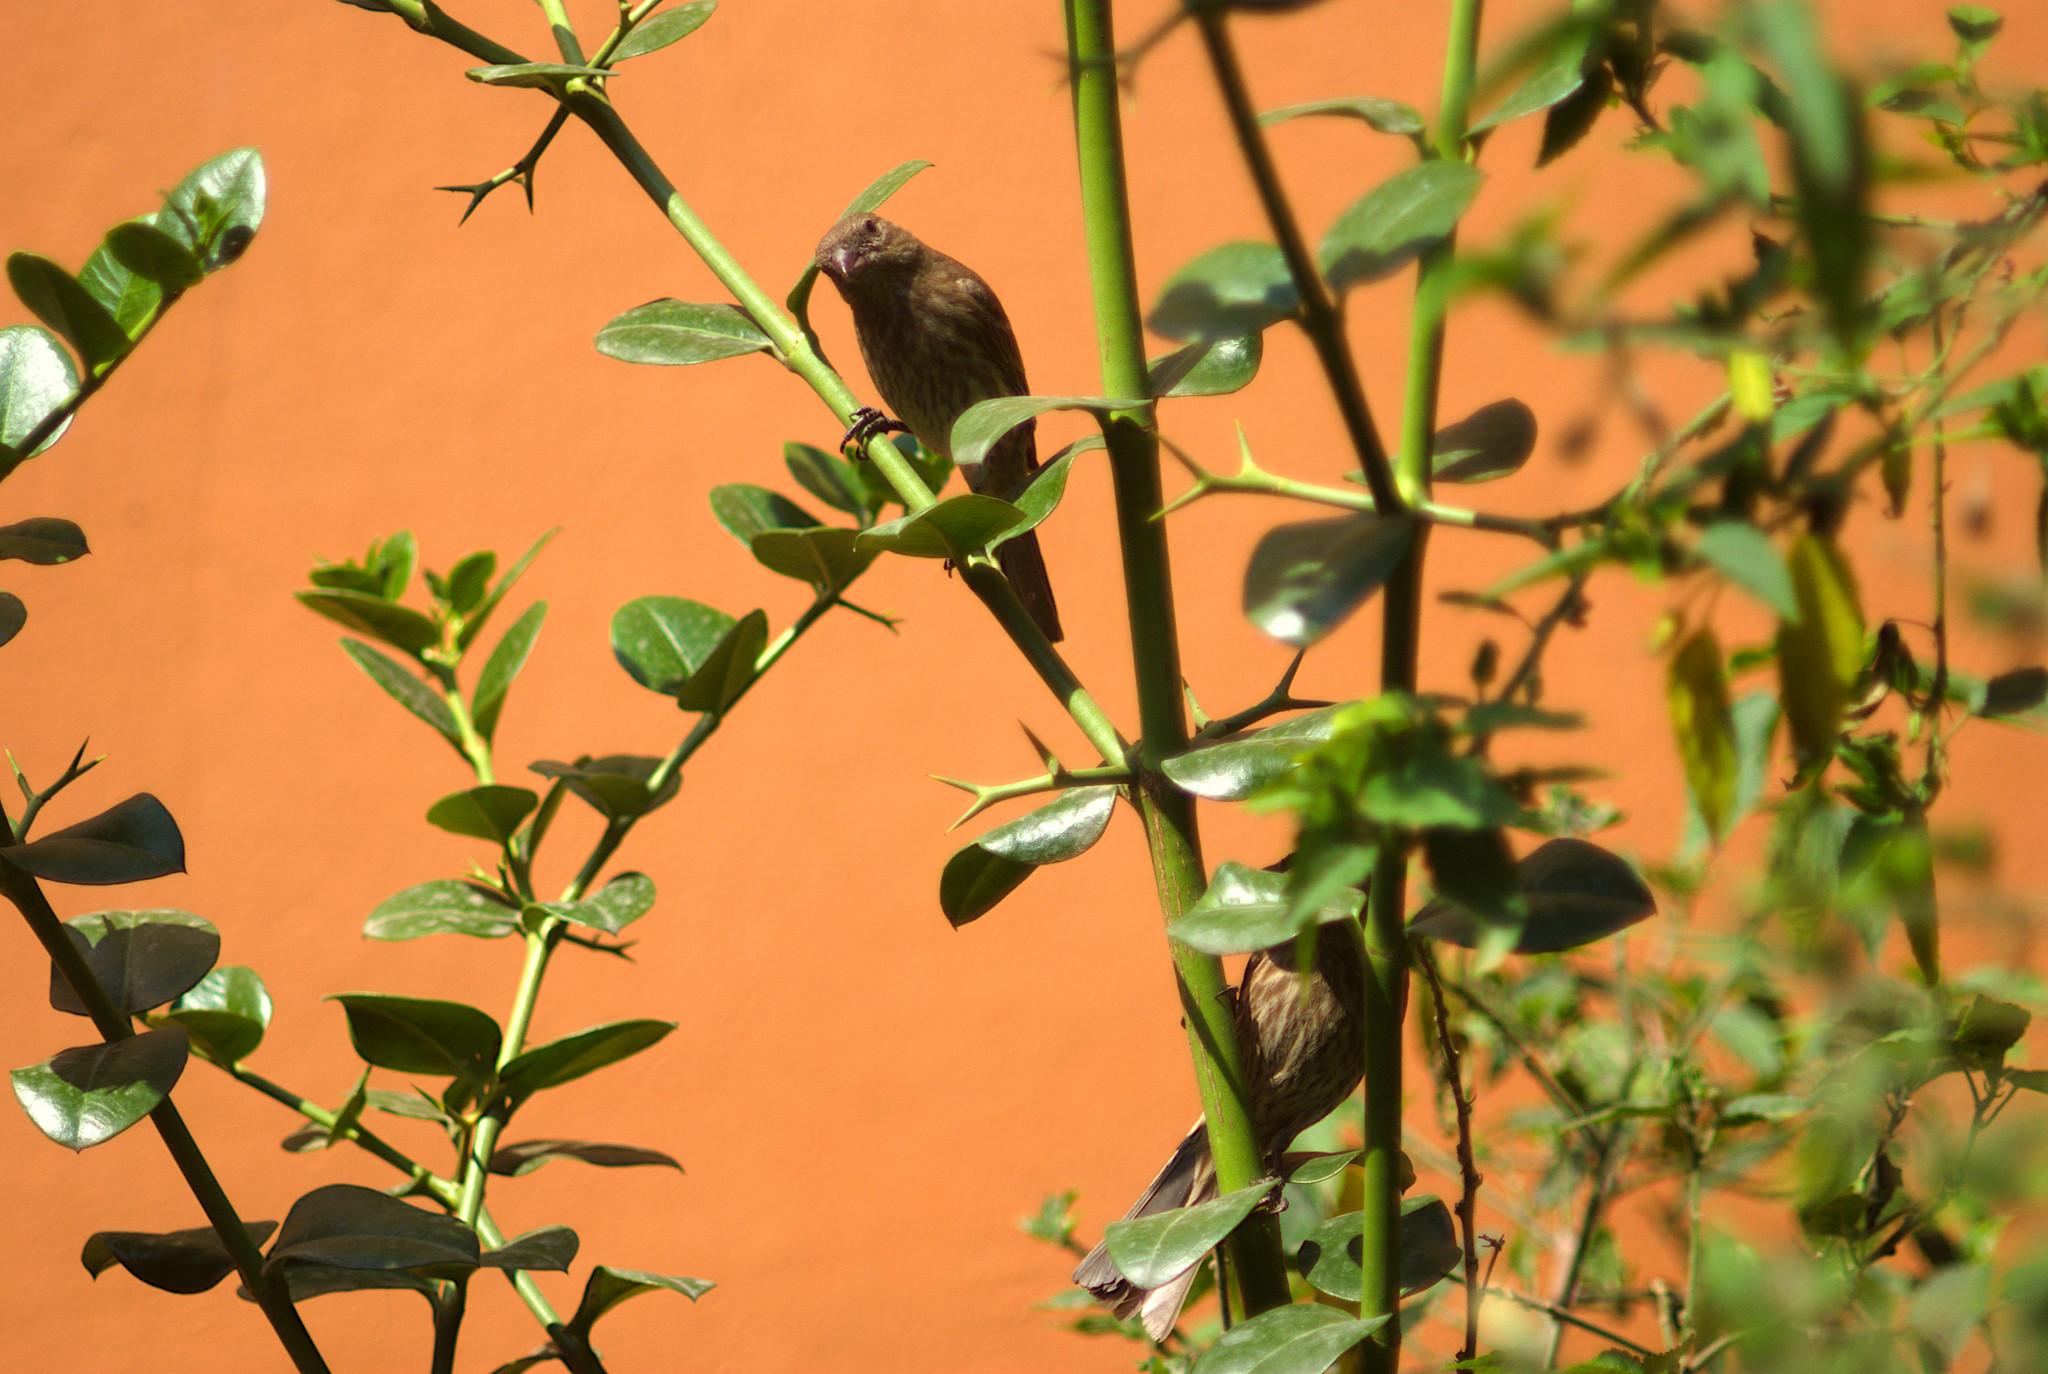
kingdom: Animalia
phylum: Chordata
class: Aves
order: Passeriformes
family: Fringillidae
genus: Haemorhous
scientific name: Haemorhous mexicanus
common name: House finch
